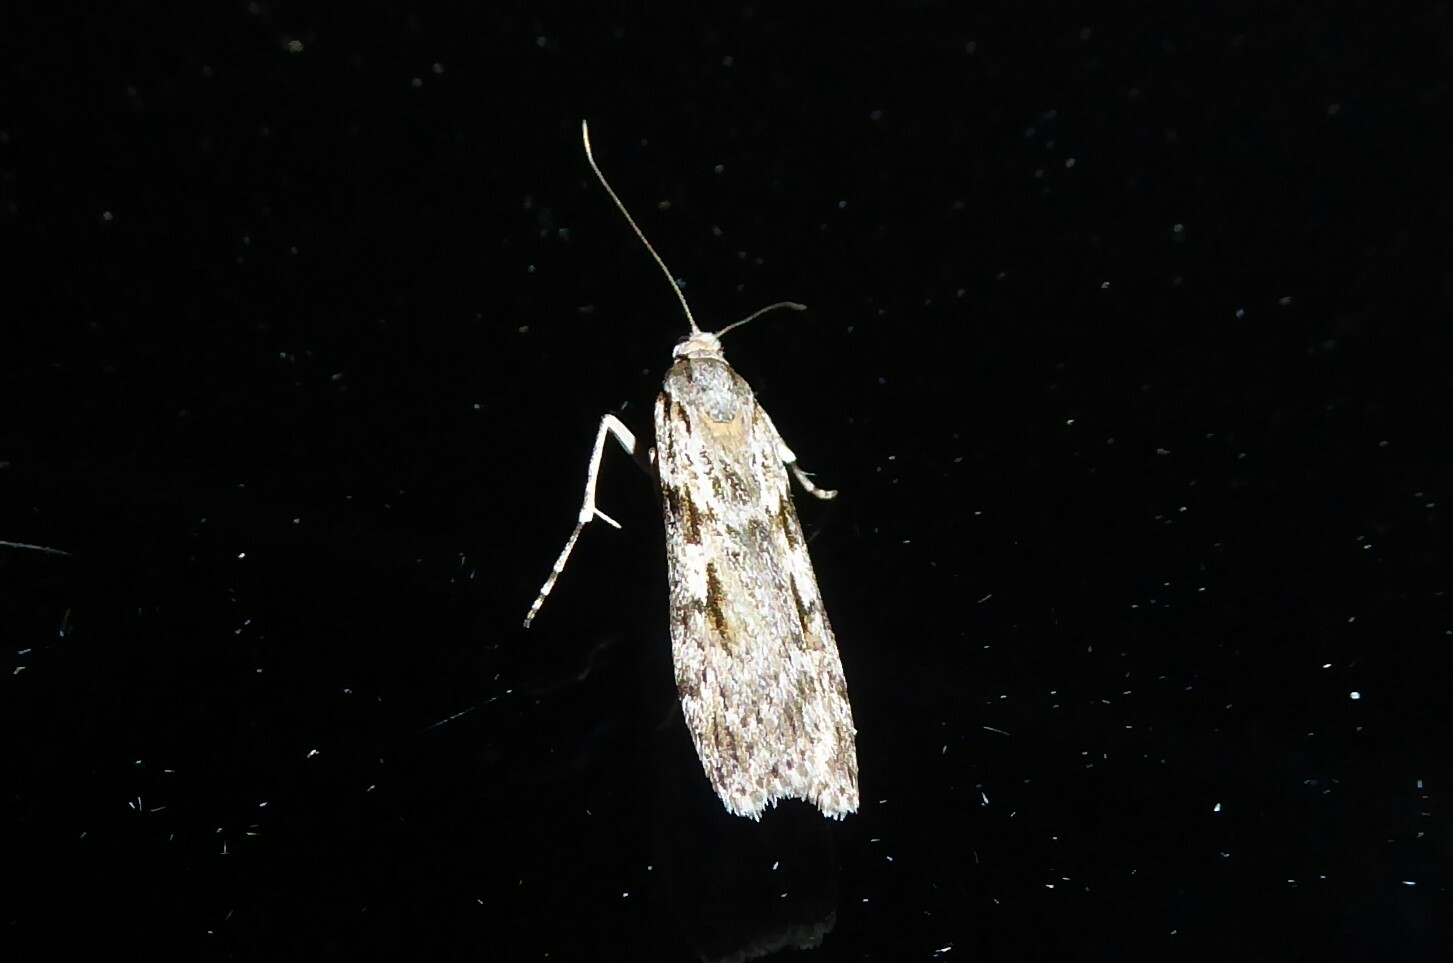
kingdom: Animalia
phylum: Arthropoda
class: Insecta
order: Lepidoptera
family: Crambidae
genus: Scoparia
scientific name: Scoparia halopis
